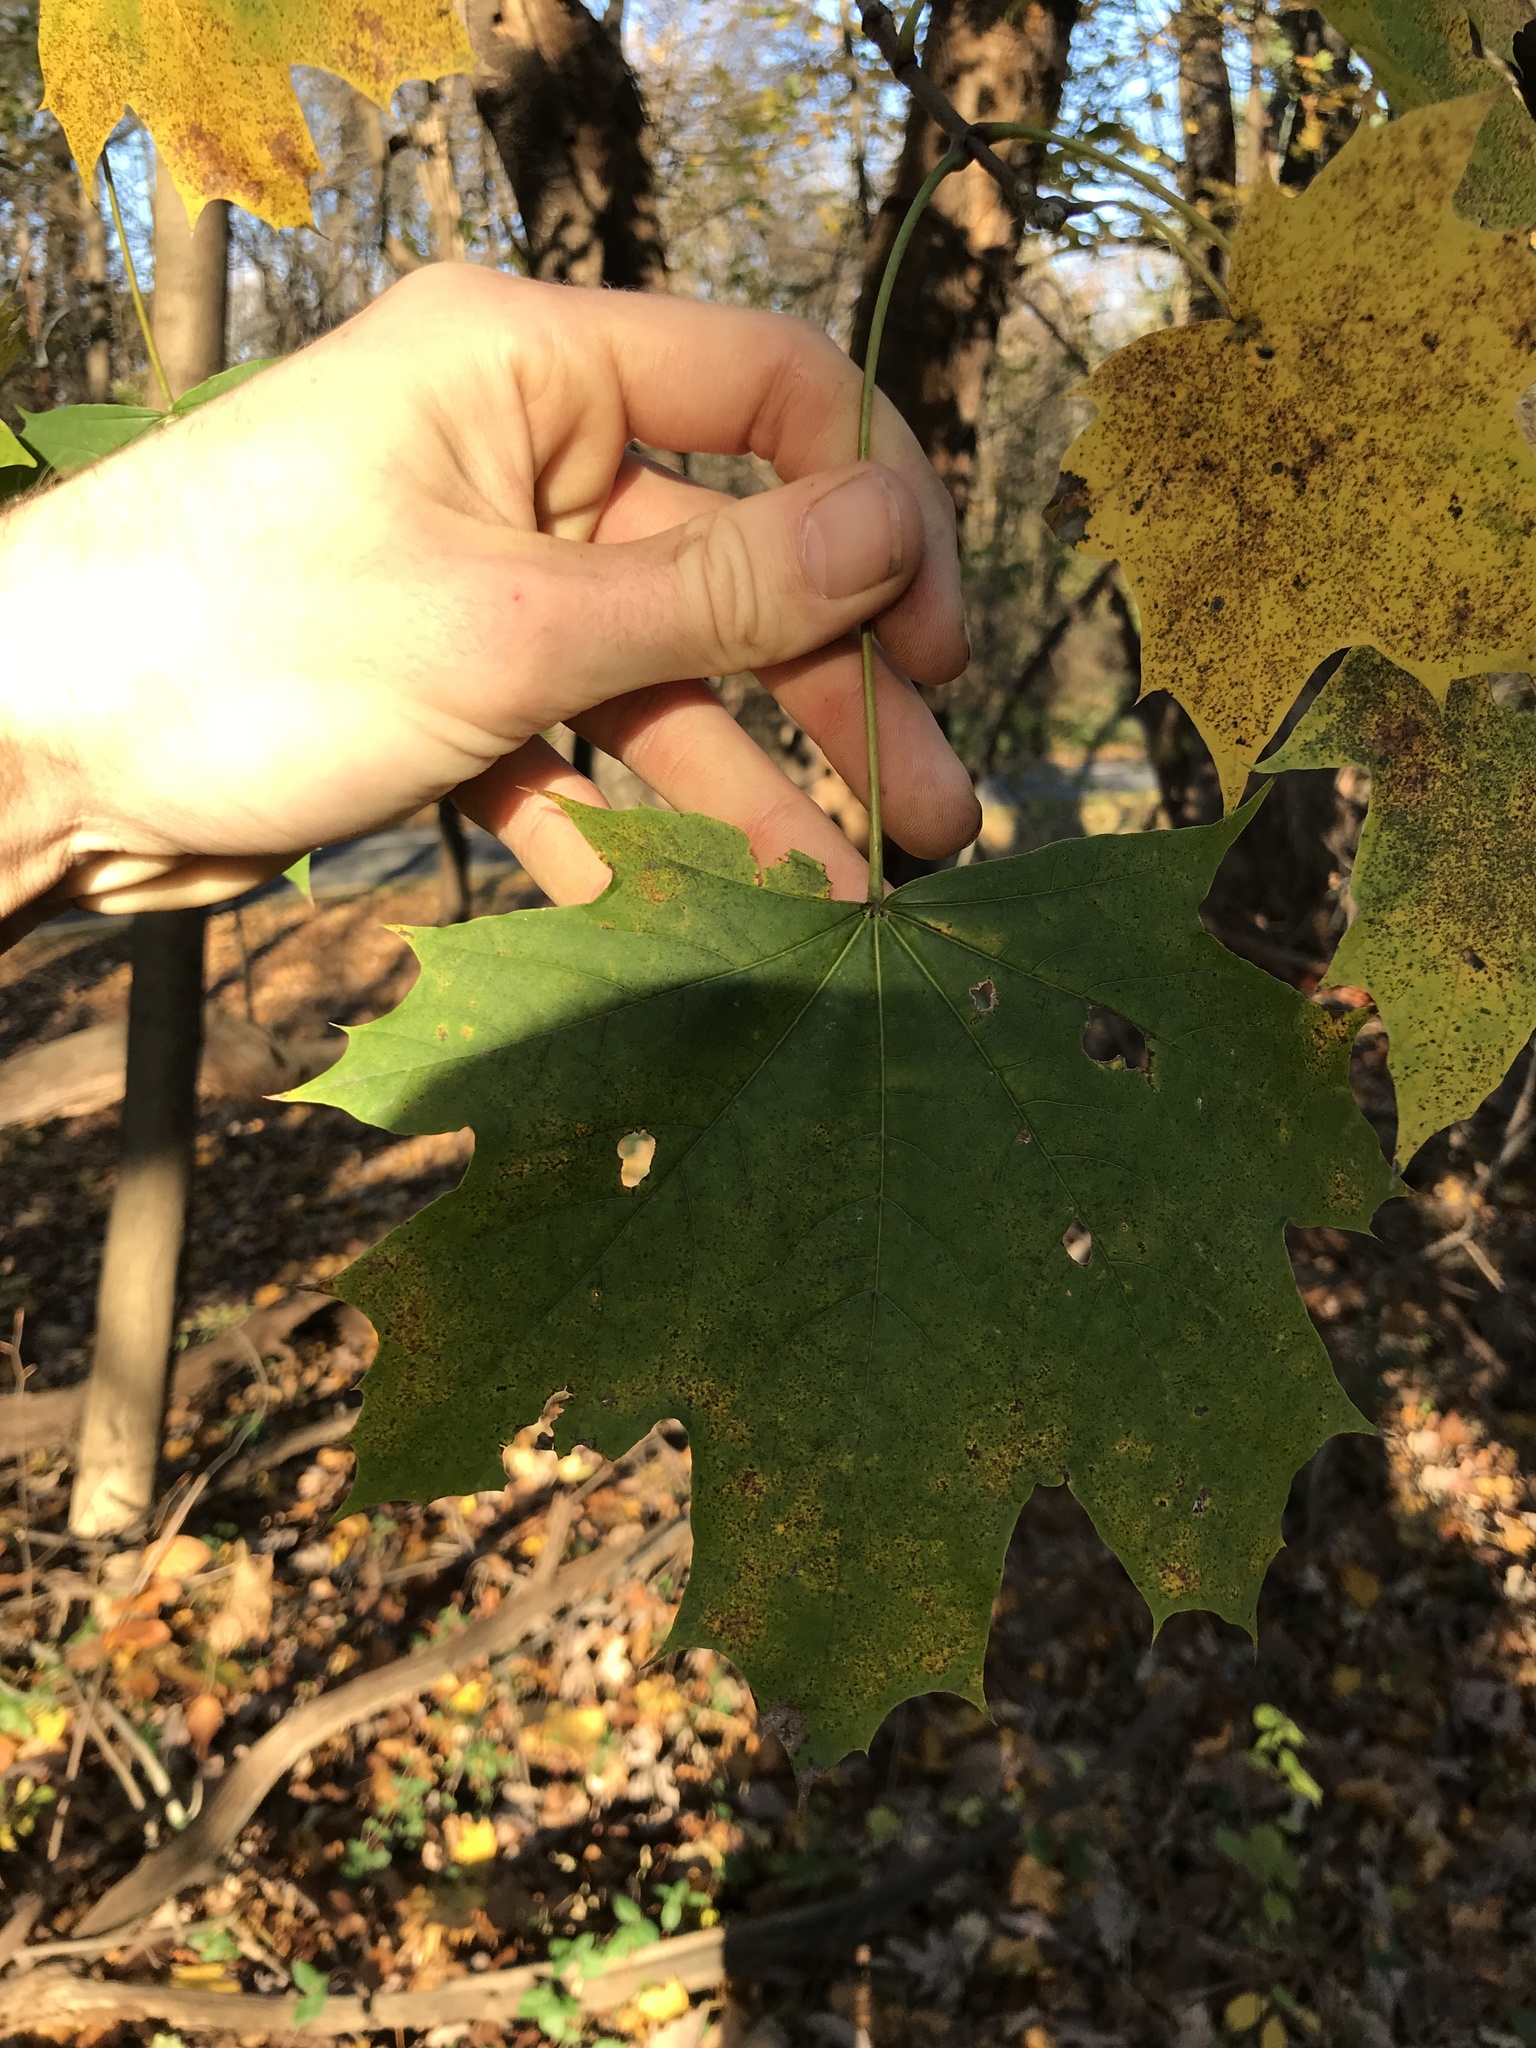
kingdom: Plantae
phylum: Tracheophyta
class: Magnoliopsida
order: Sapindales
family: Sapindaceae
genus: Acer
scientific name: Acer platanoides
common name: Norway maple
